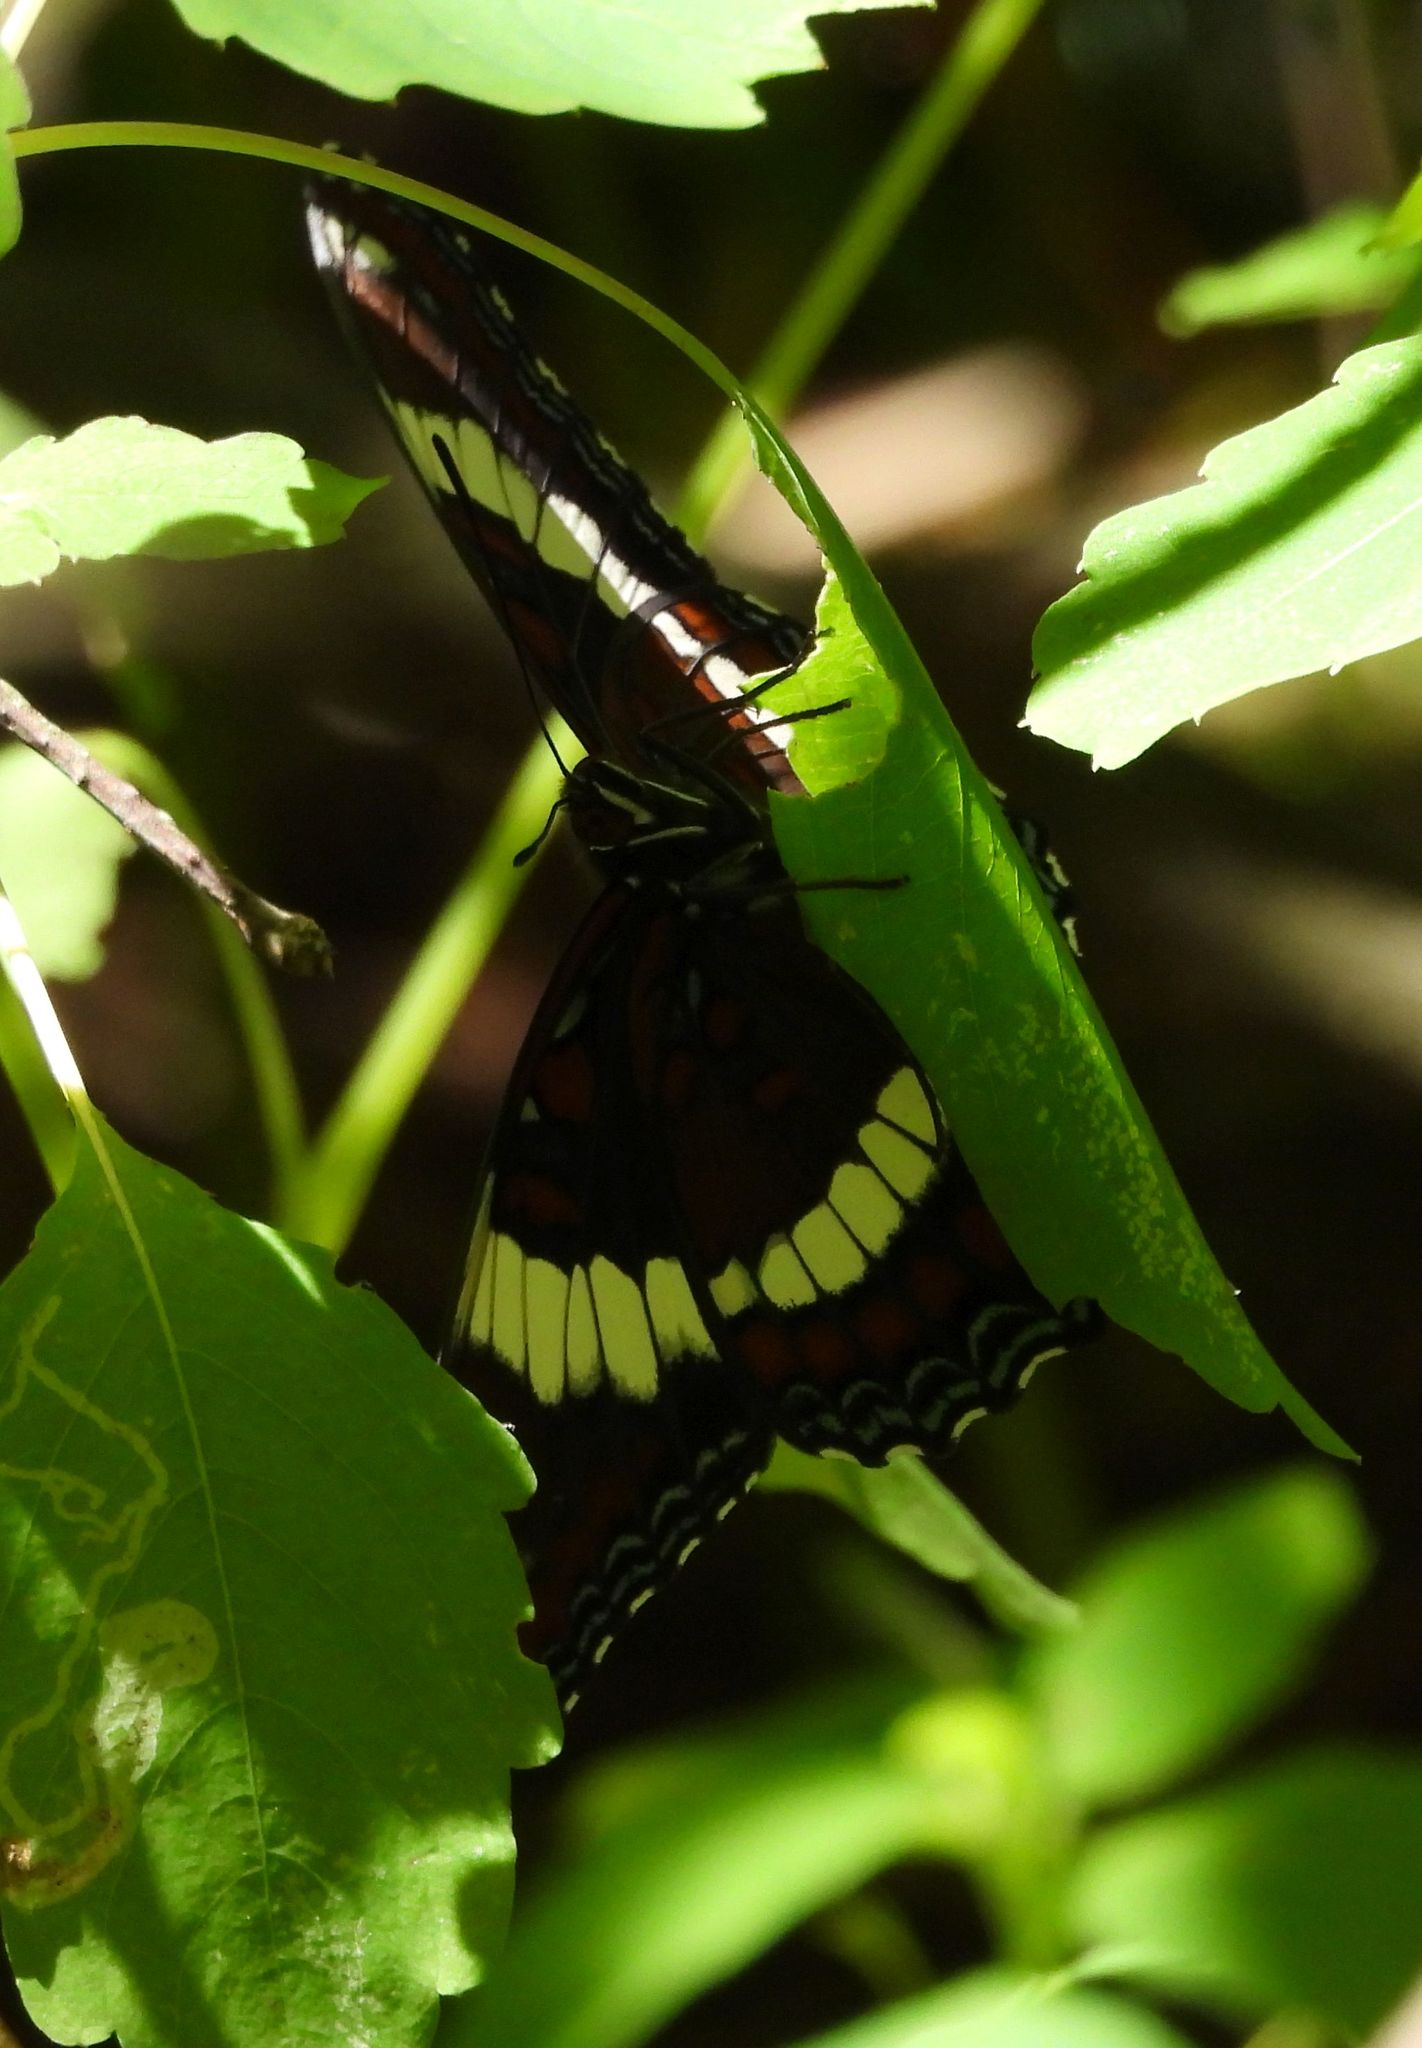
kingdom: Animalia
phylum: Arthropoda
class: Insecta
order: Lepidoptera
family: Nymphalidae
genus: Limenitis
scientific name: Limenitis arthemis
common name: Red-spotted admiral
